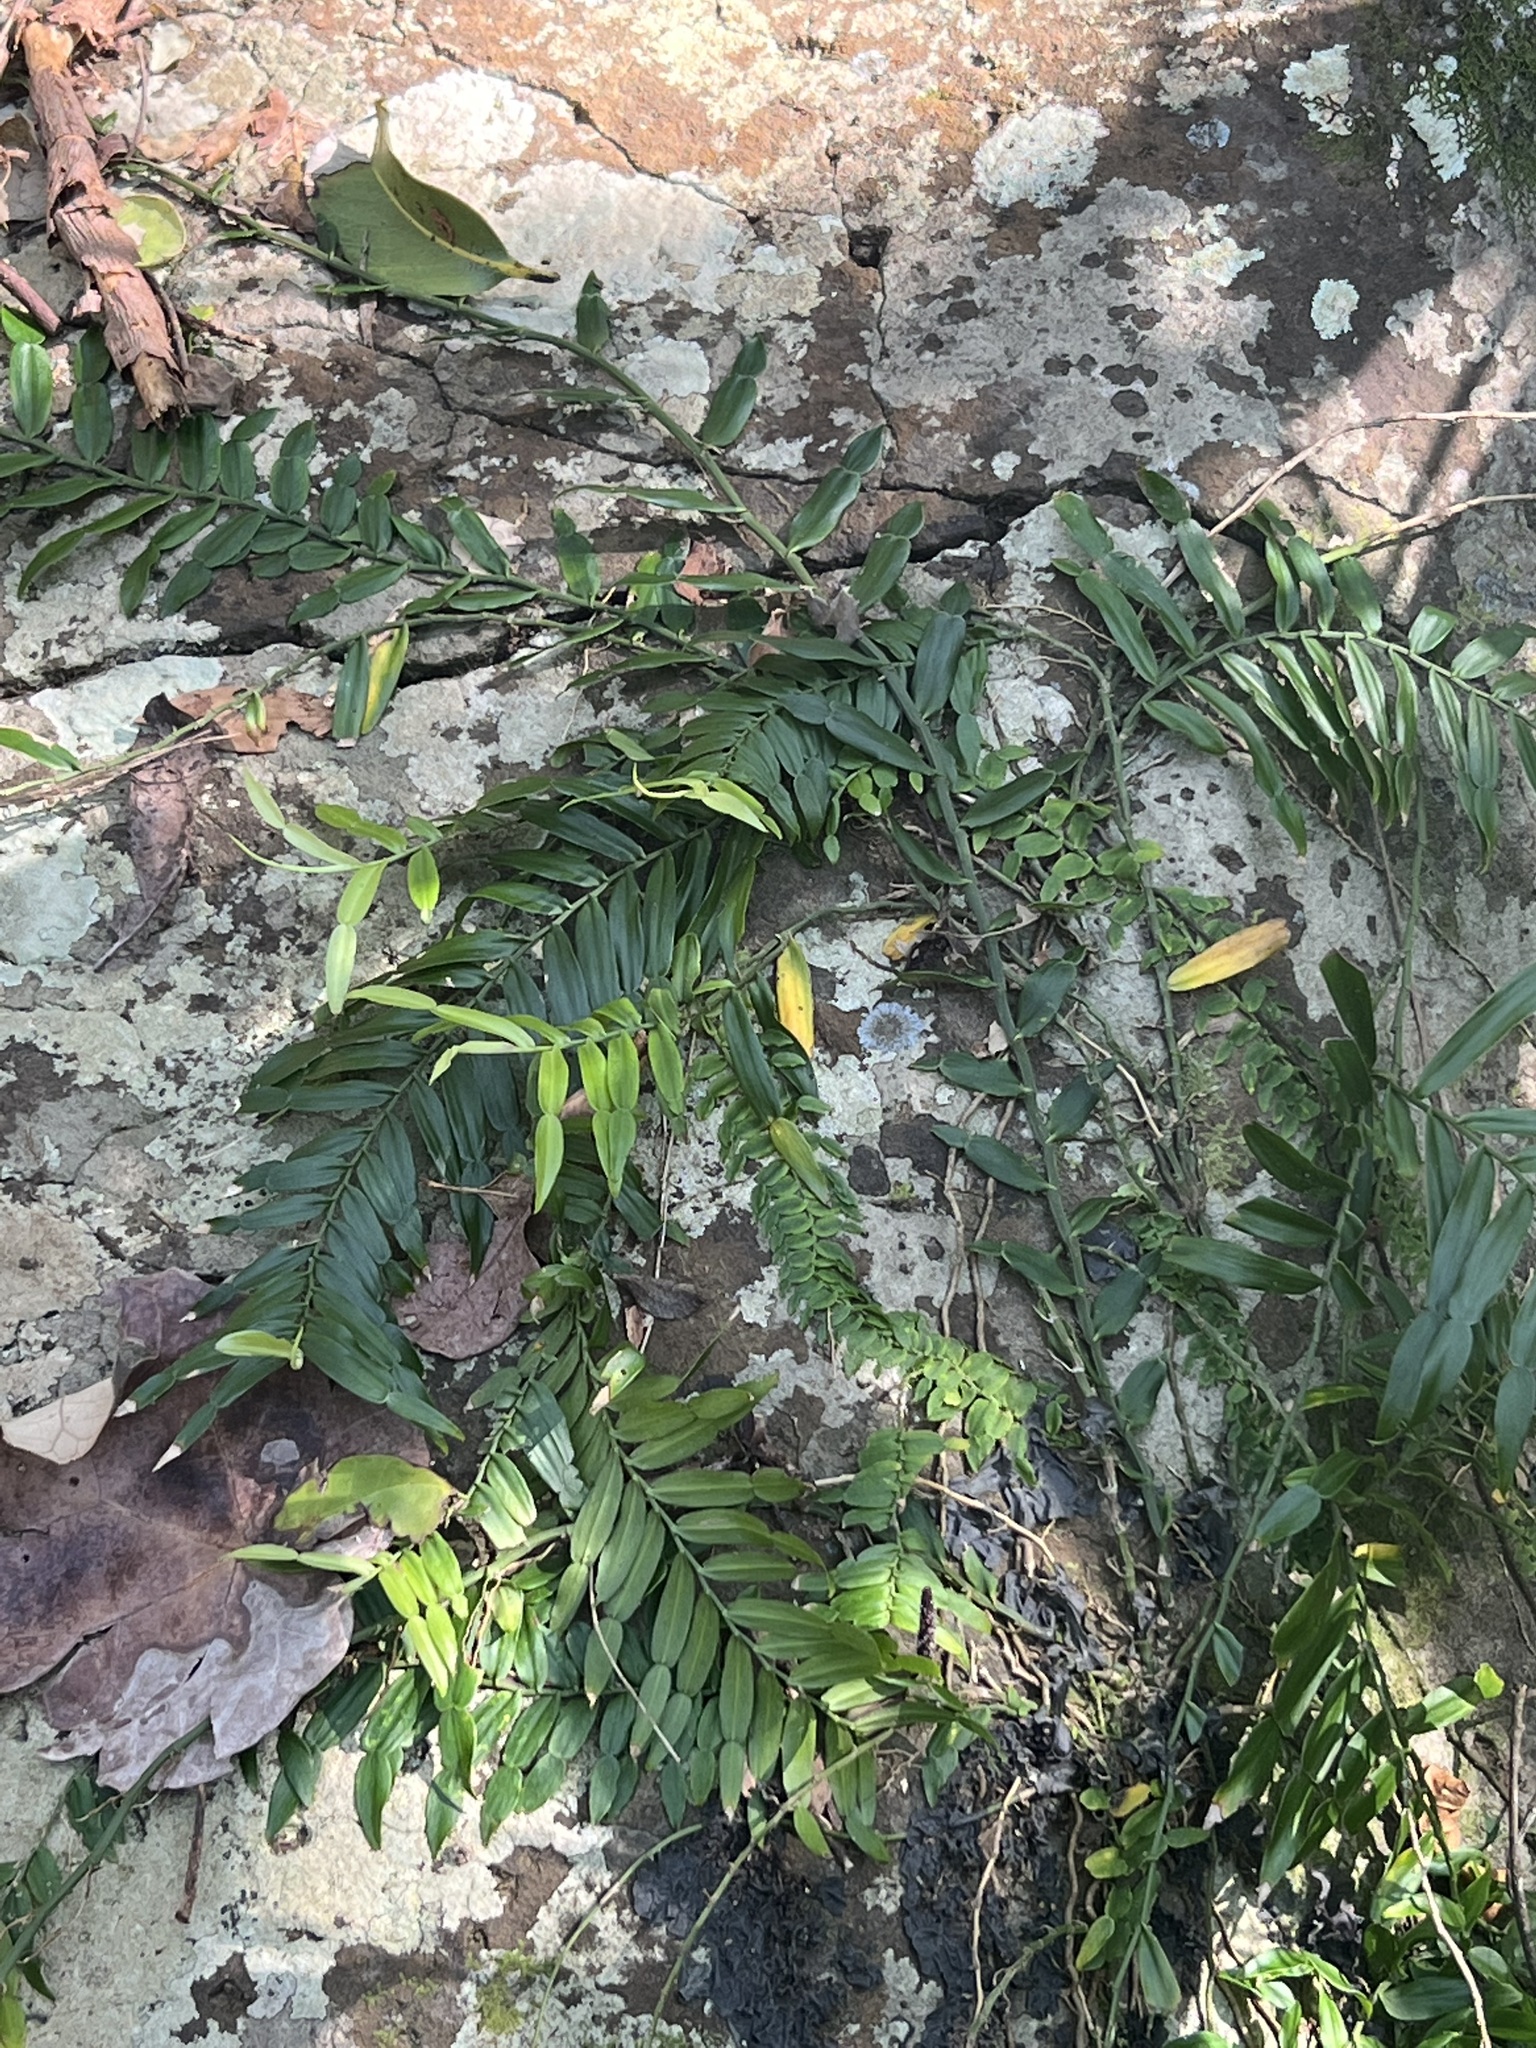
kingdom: Plantae
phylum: Tracheophyta
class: Liliopsida
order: Alismatales
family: Araceae
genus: Pothos
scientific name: Pothos longipes
